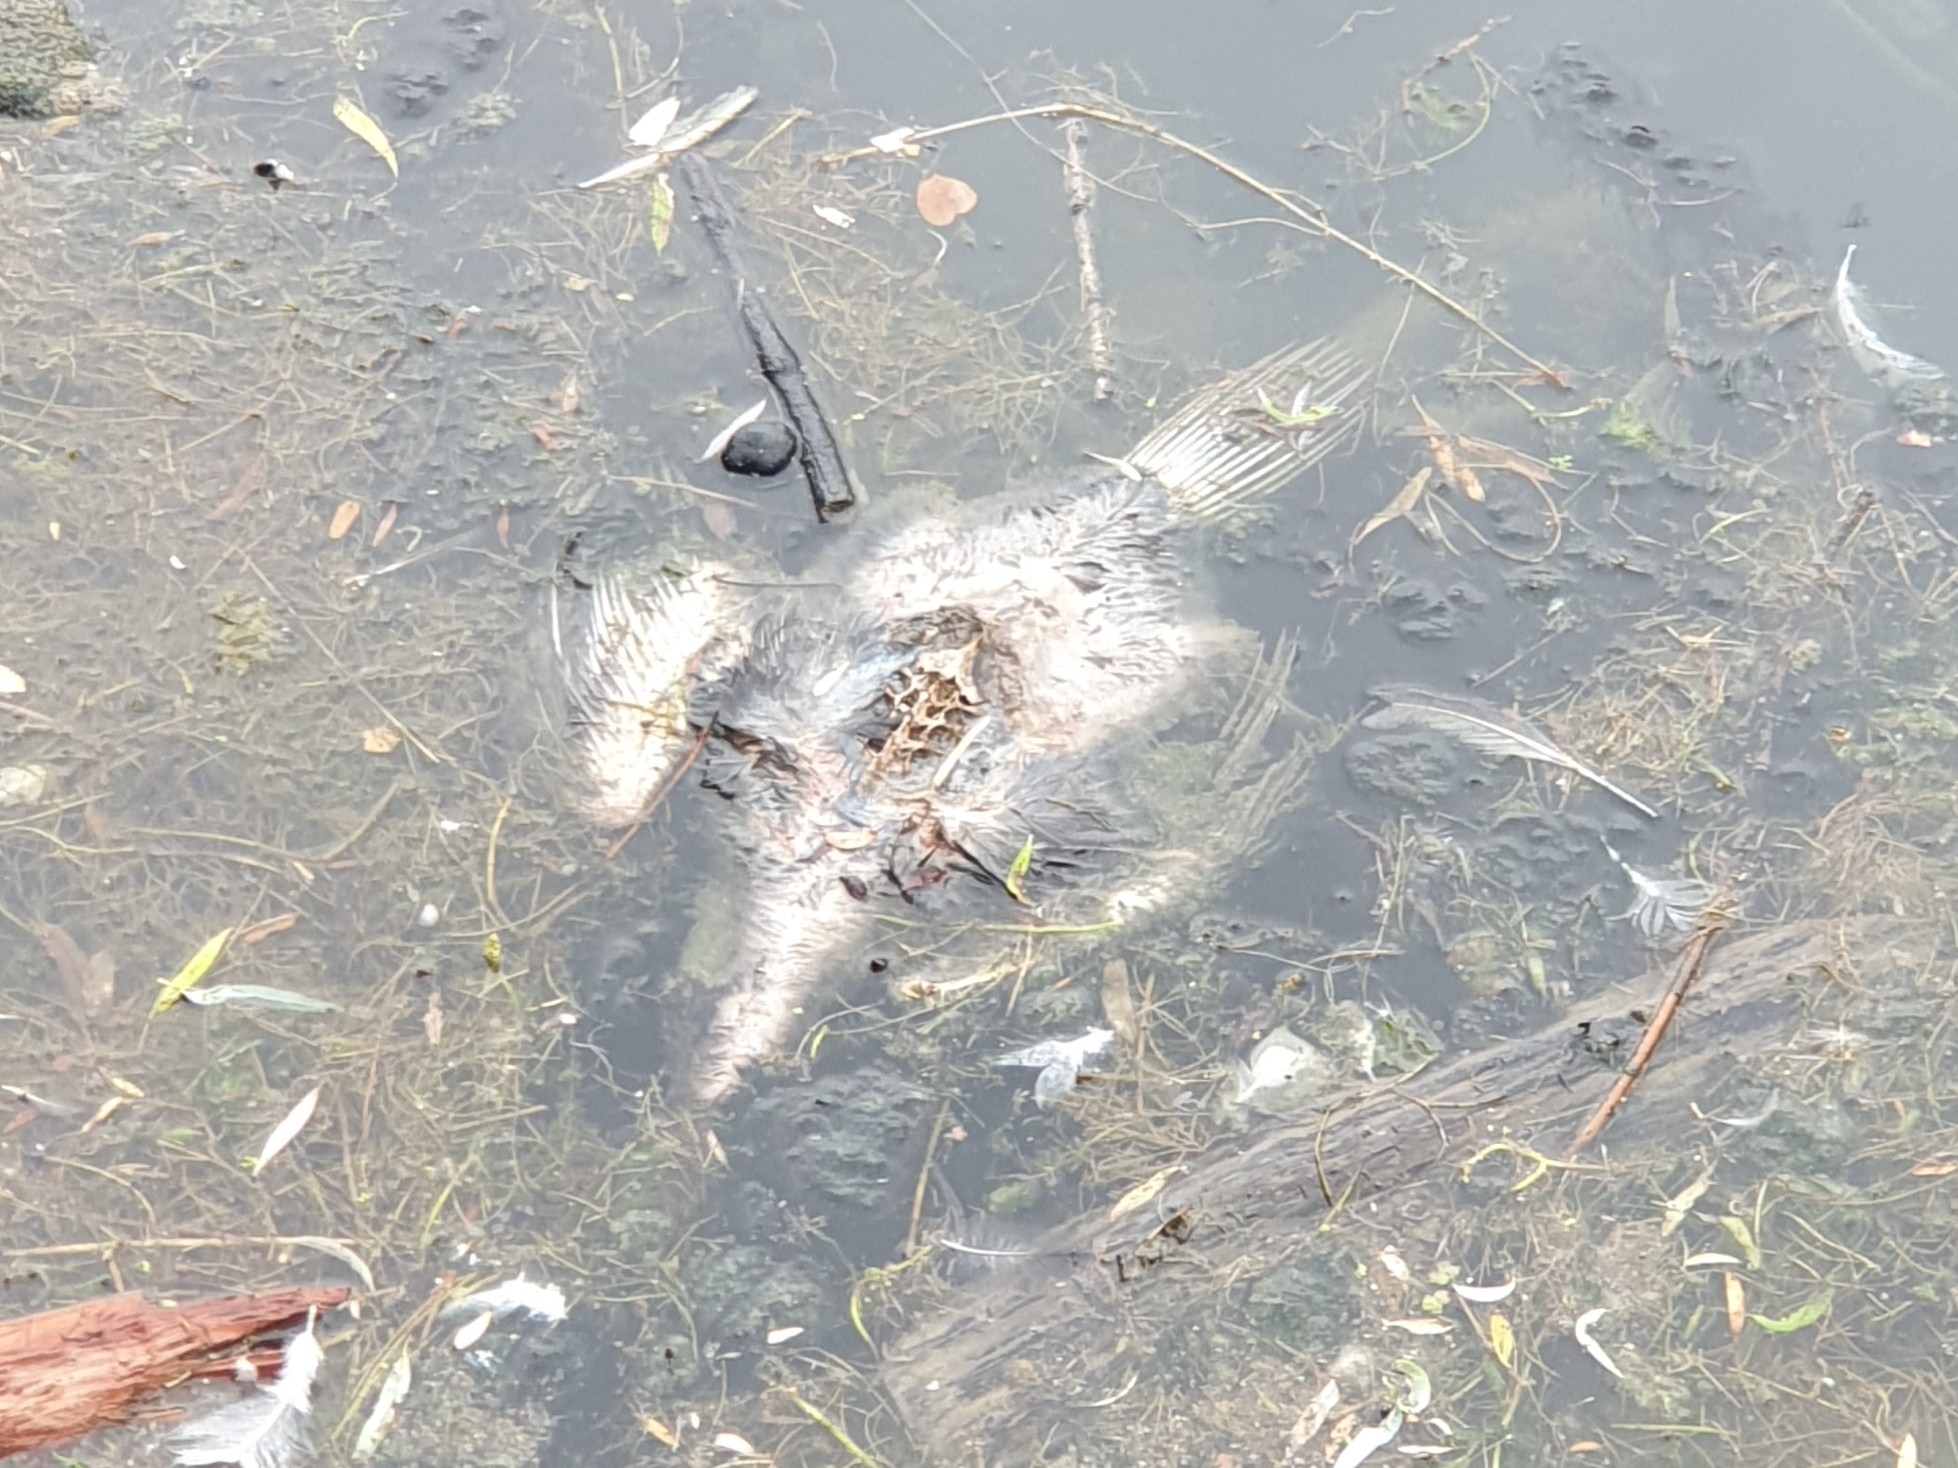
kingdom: Animalia
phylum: Chordata
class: Aves
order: Suliformes
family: Phalacrocoracidae
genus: Phalacrocorax
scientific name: Phalacrocorax carbo
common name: Great cormorant
